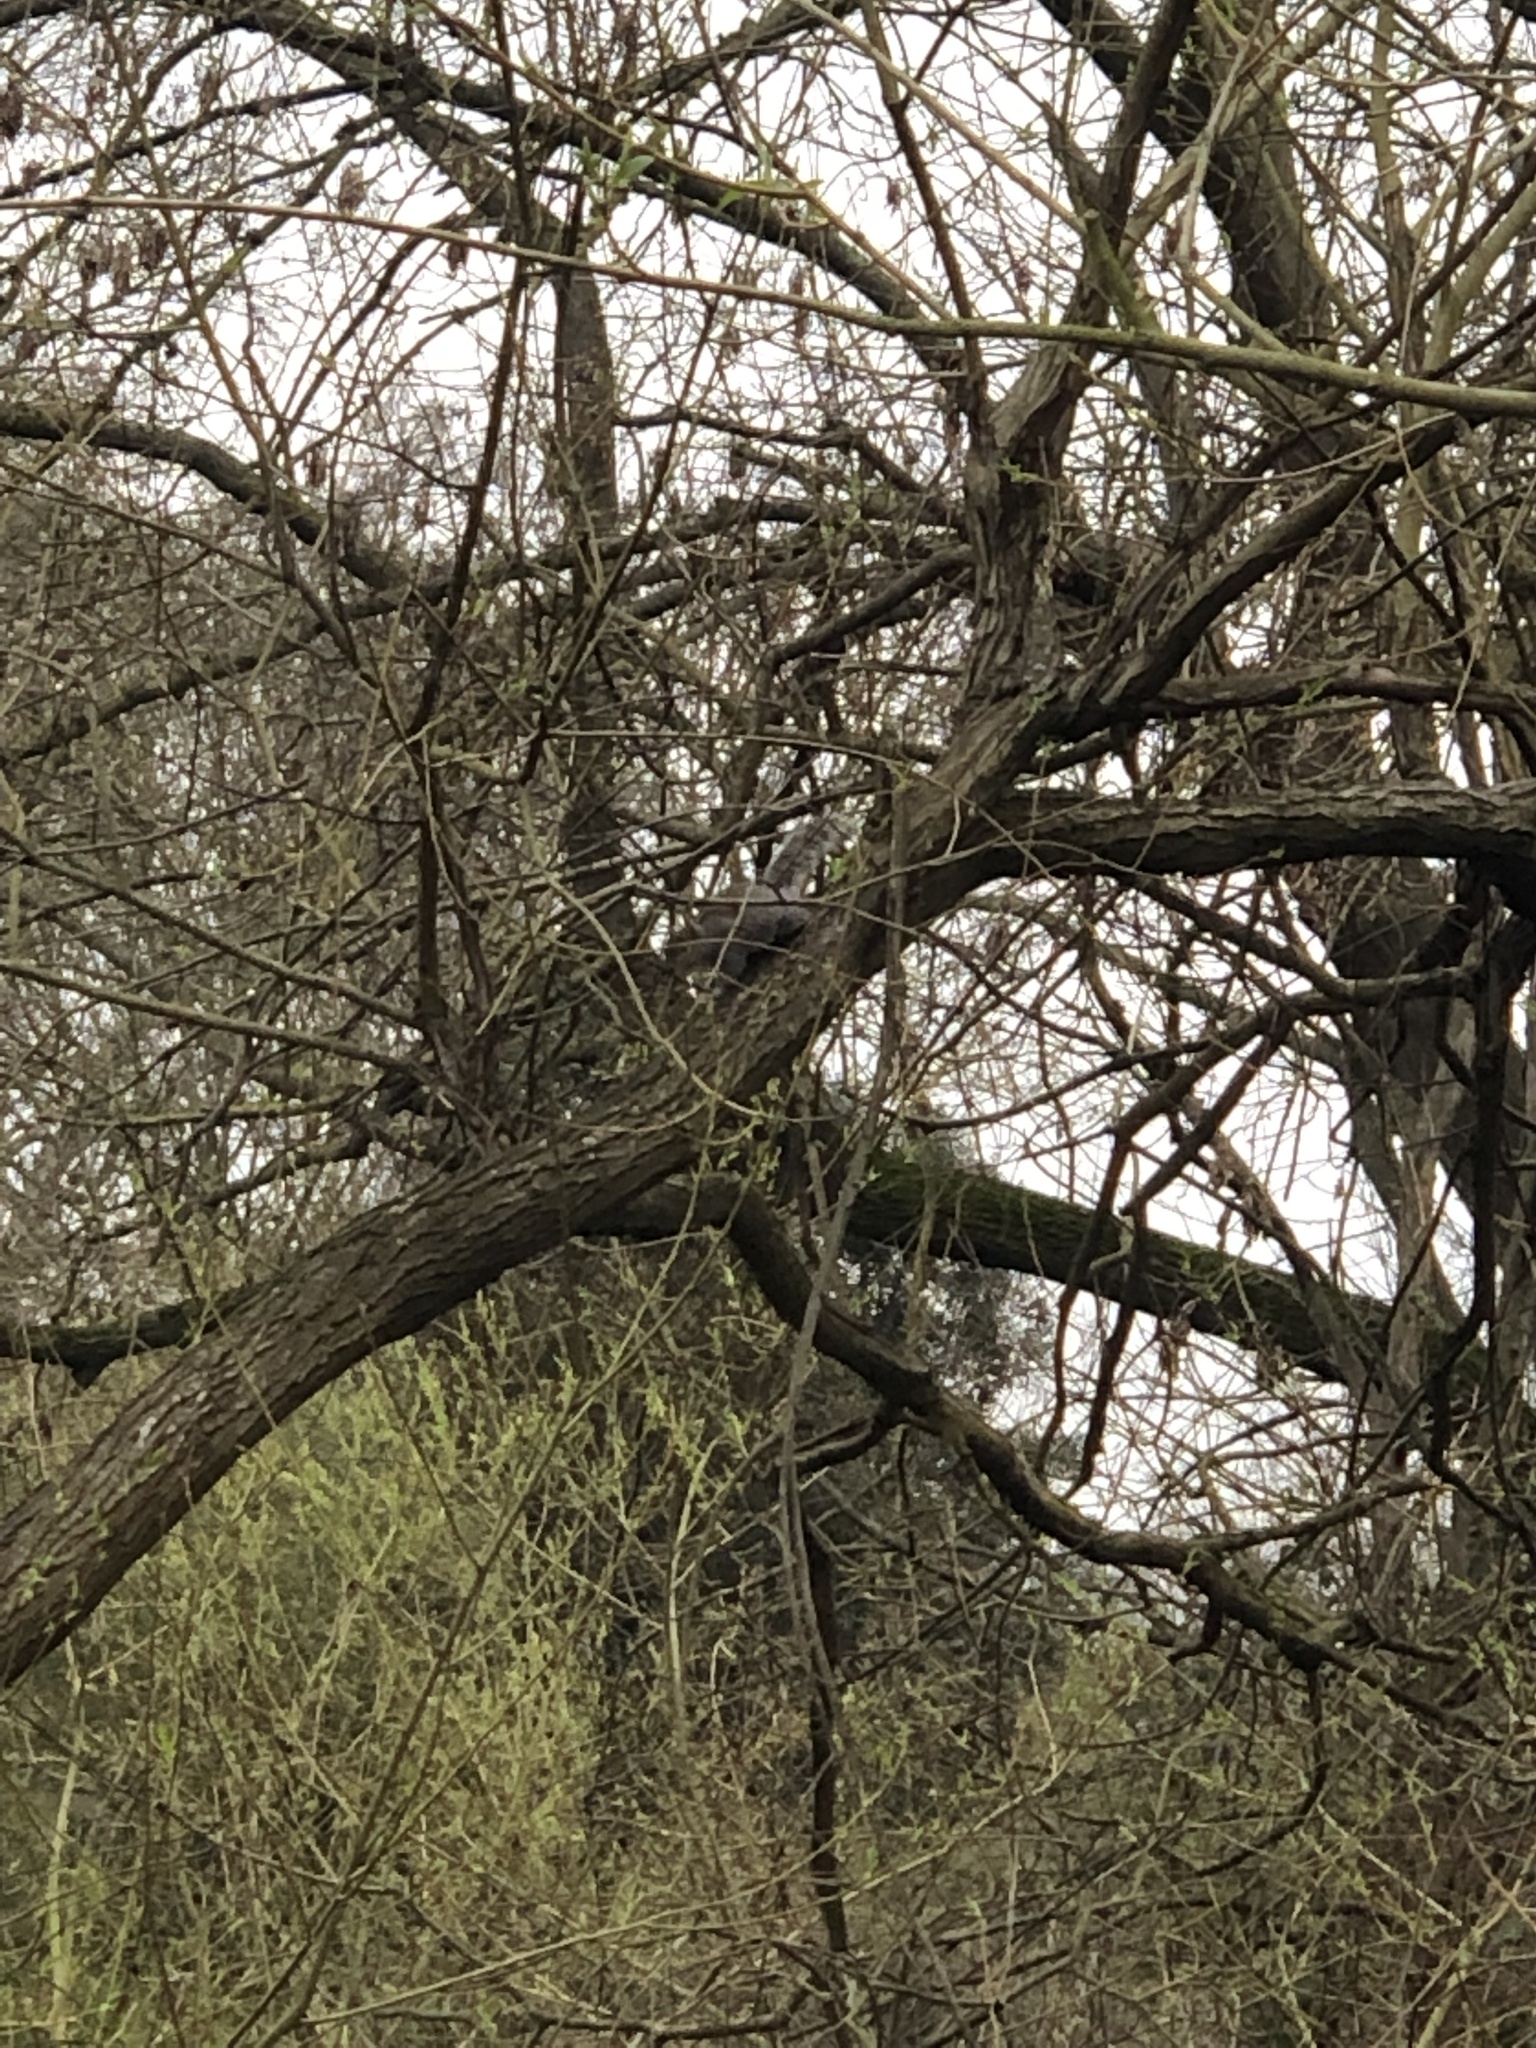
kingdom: Animalia
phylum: Chordata
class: Mammalia
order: Rodentia
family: Sciuridae
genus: Sciurus
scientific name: Sciurus carolinensis
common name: Eastern gray squirrel
